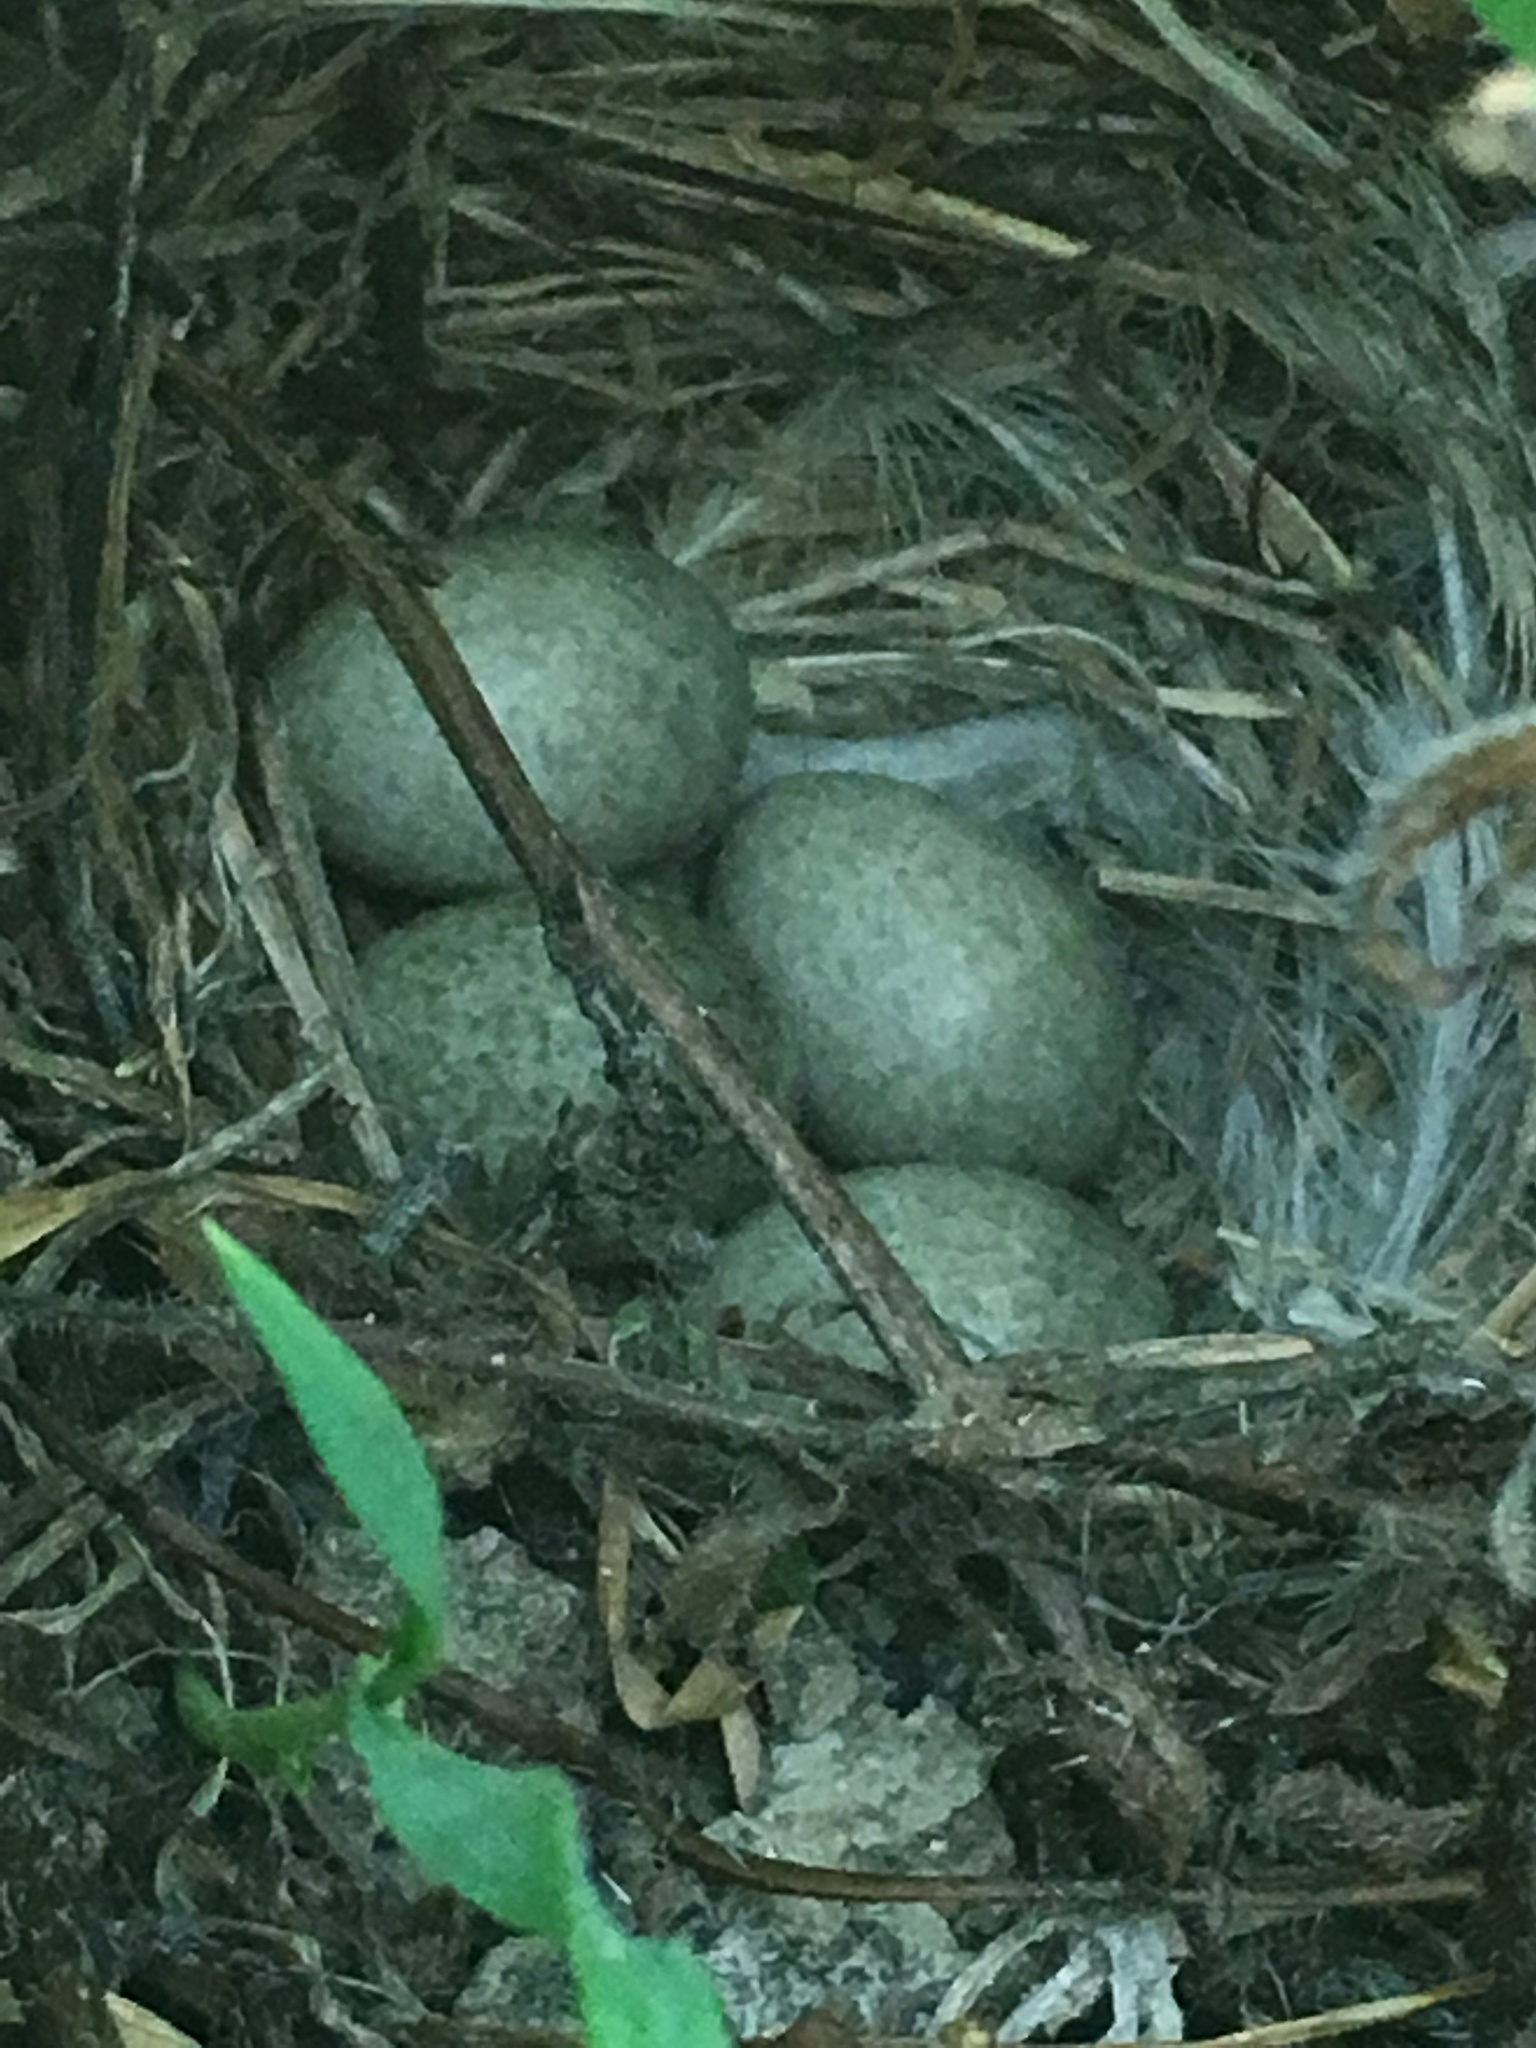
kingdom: Animalia
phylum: Chordata
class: Aves
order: Passeriformes
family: Alaudidae
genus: Eremophila
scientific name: Eremophila alpestris
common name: Horned lark
